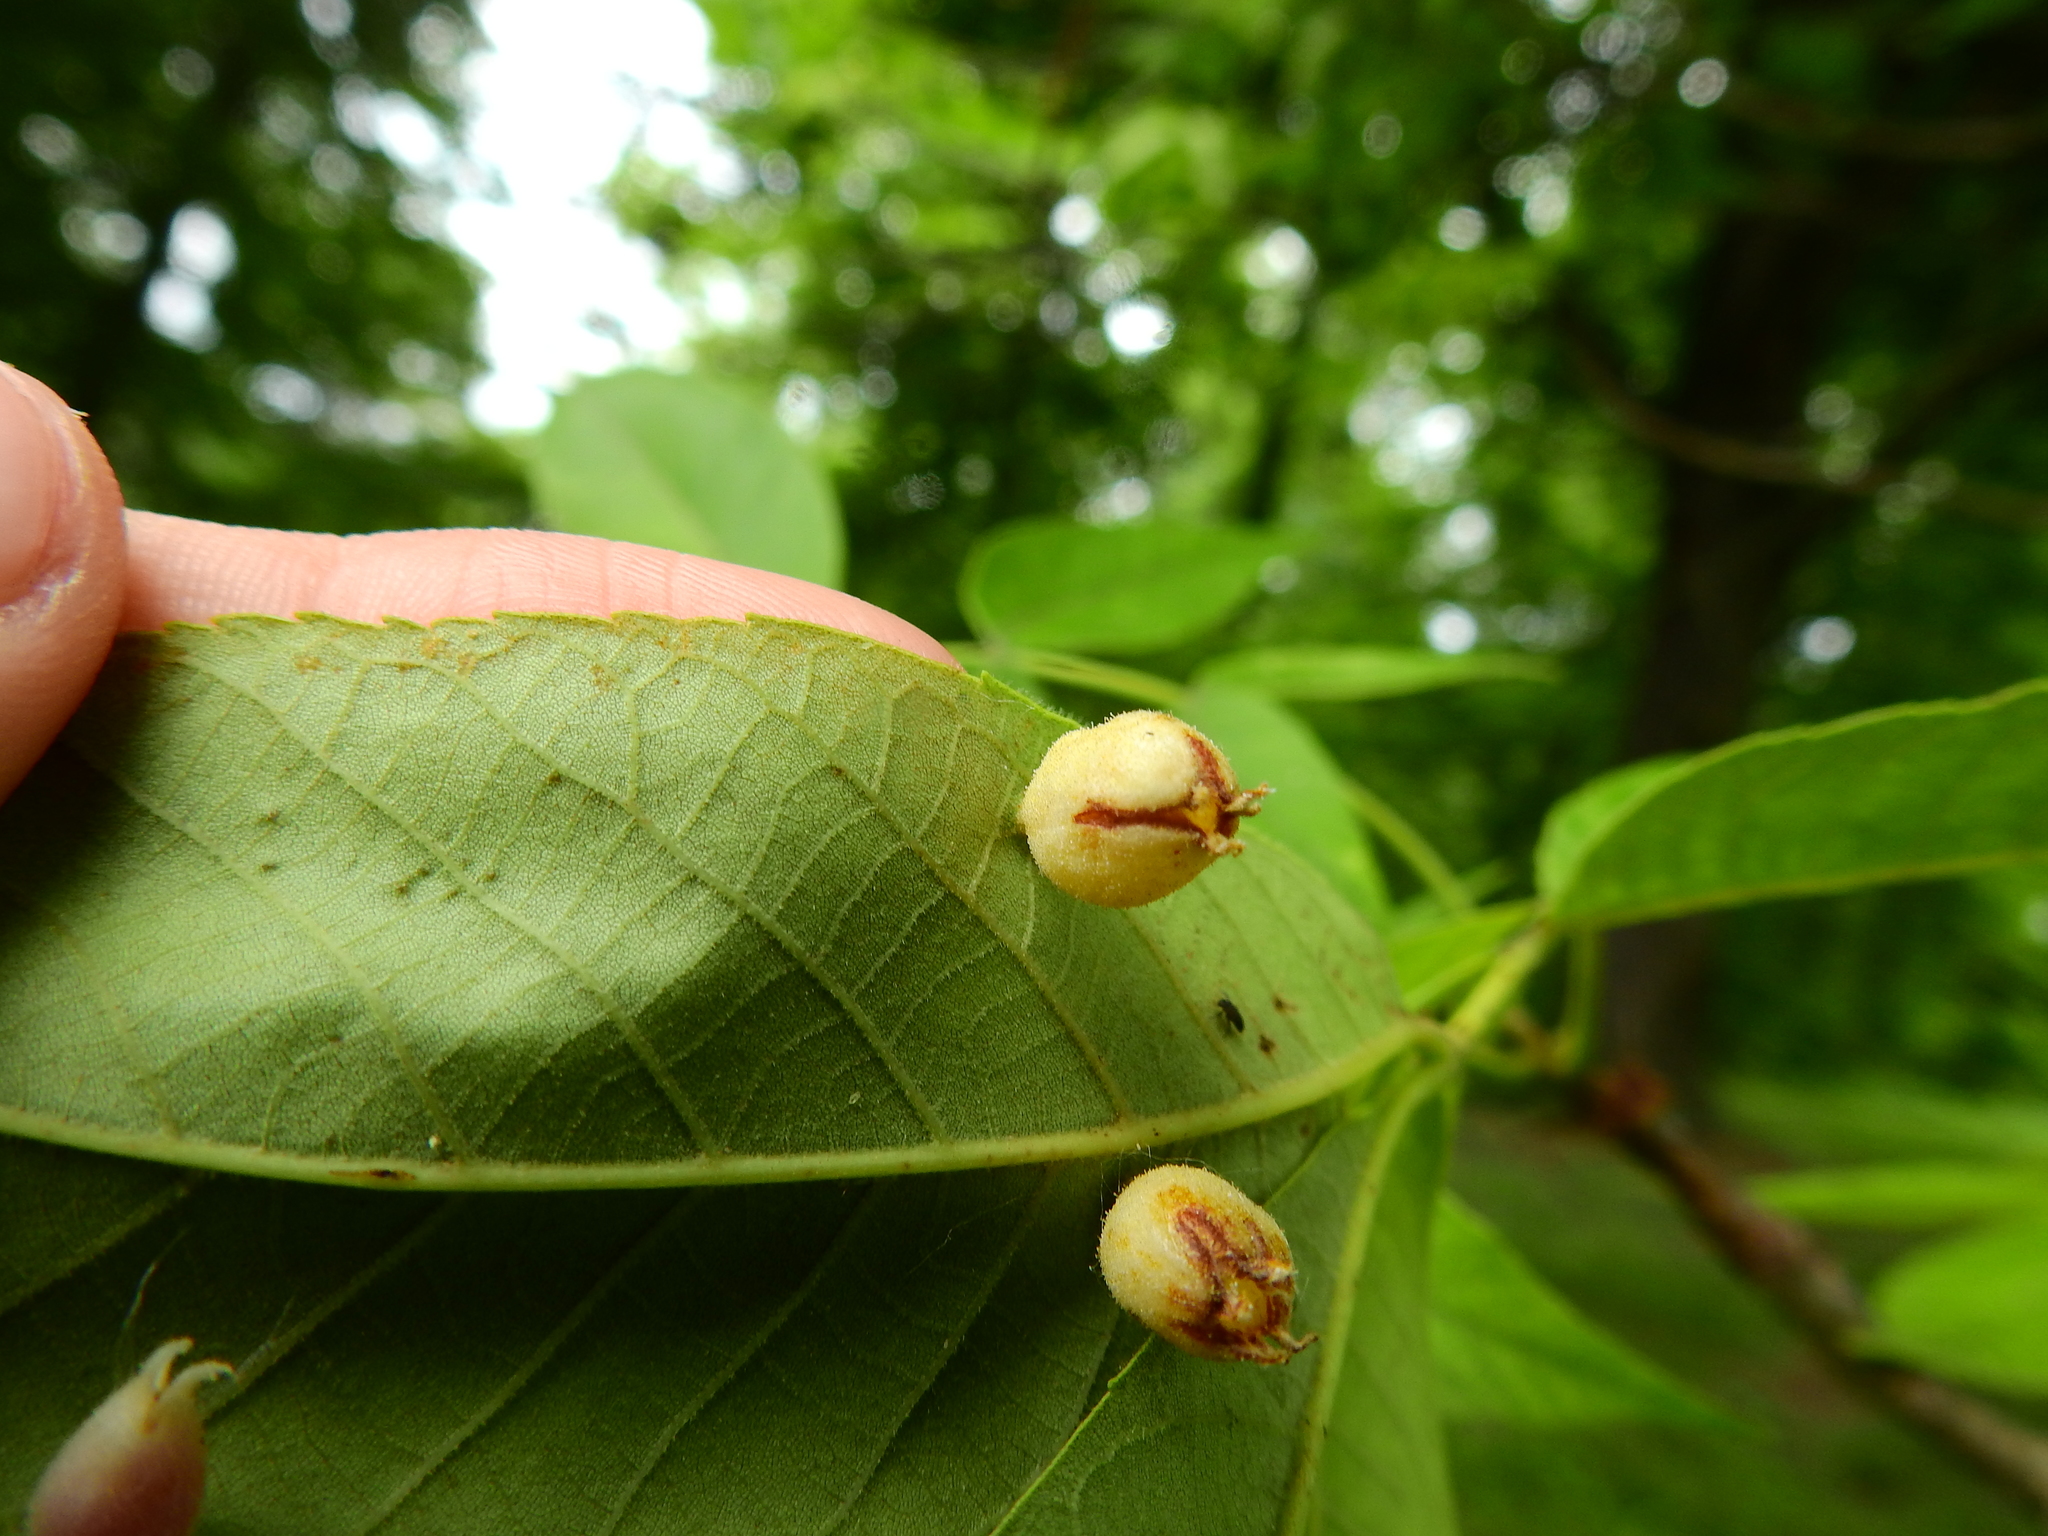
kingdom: Animalia
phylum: Arthropoda
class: Insecta
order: Hemiptera
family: Phylloxeridae
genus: Phylloxera
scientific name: Phylloxera caryaegummosa
